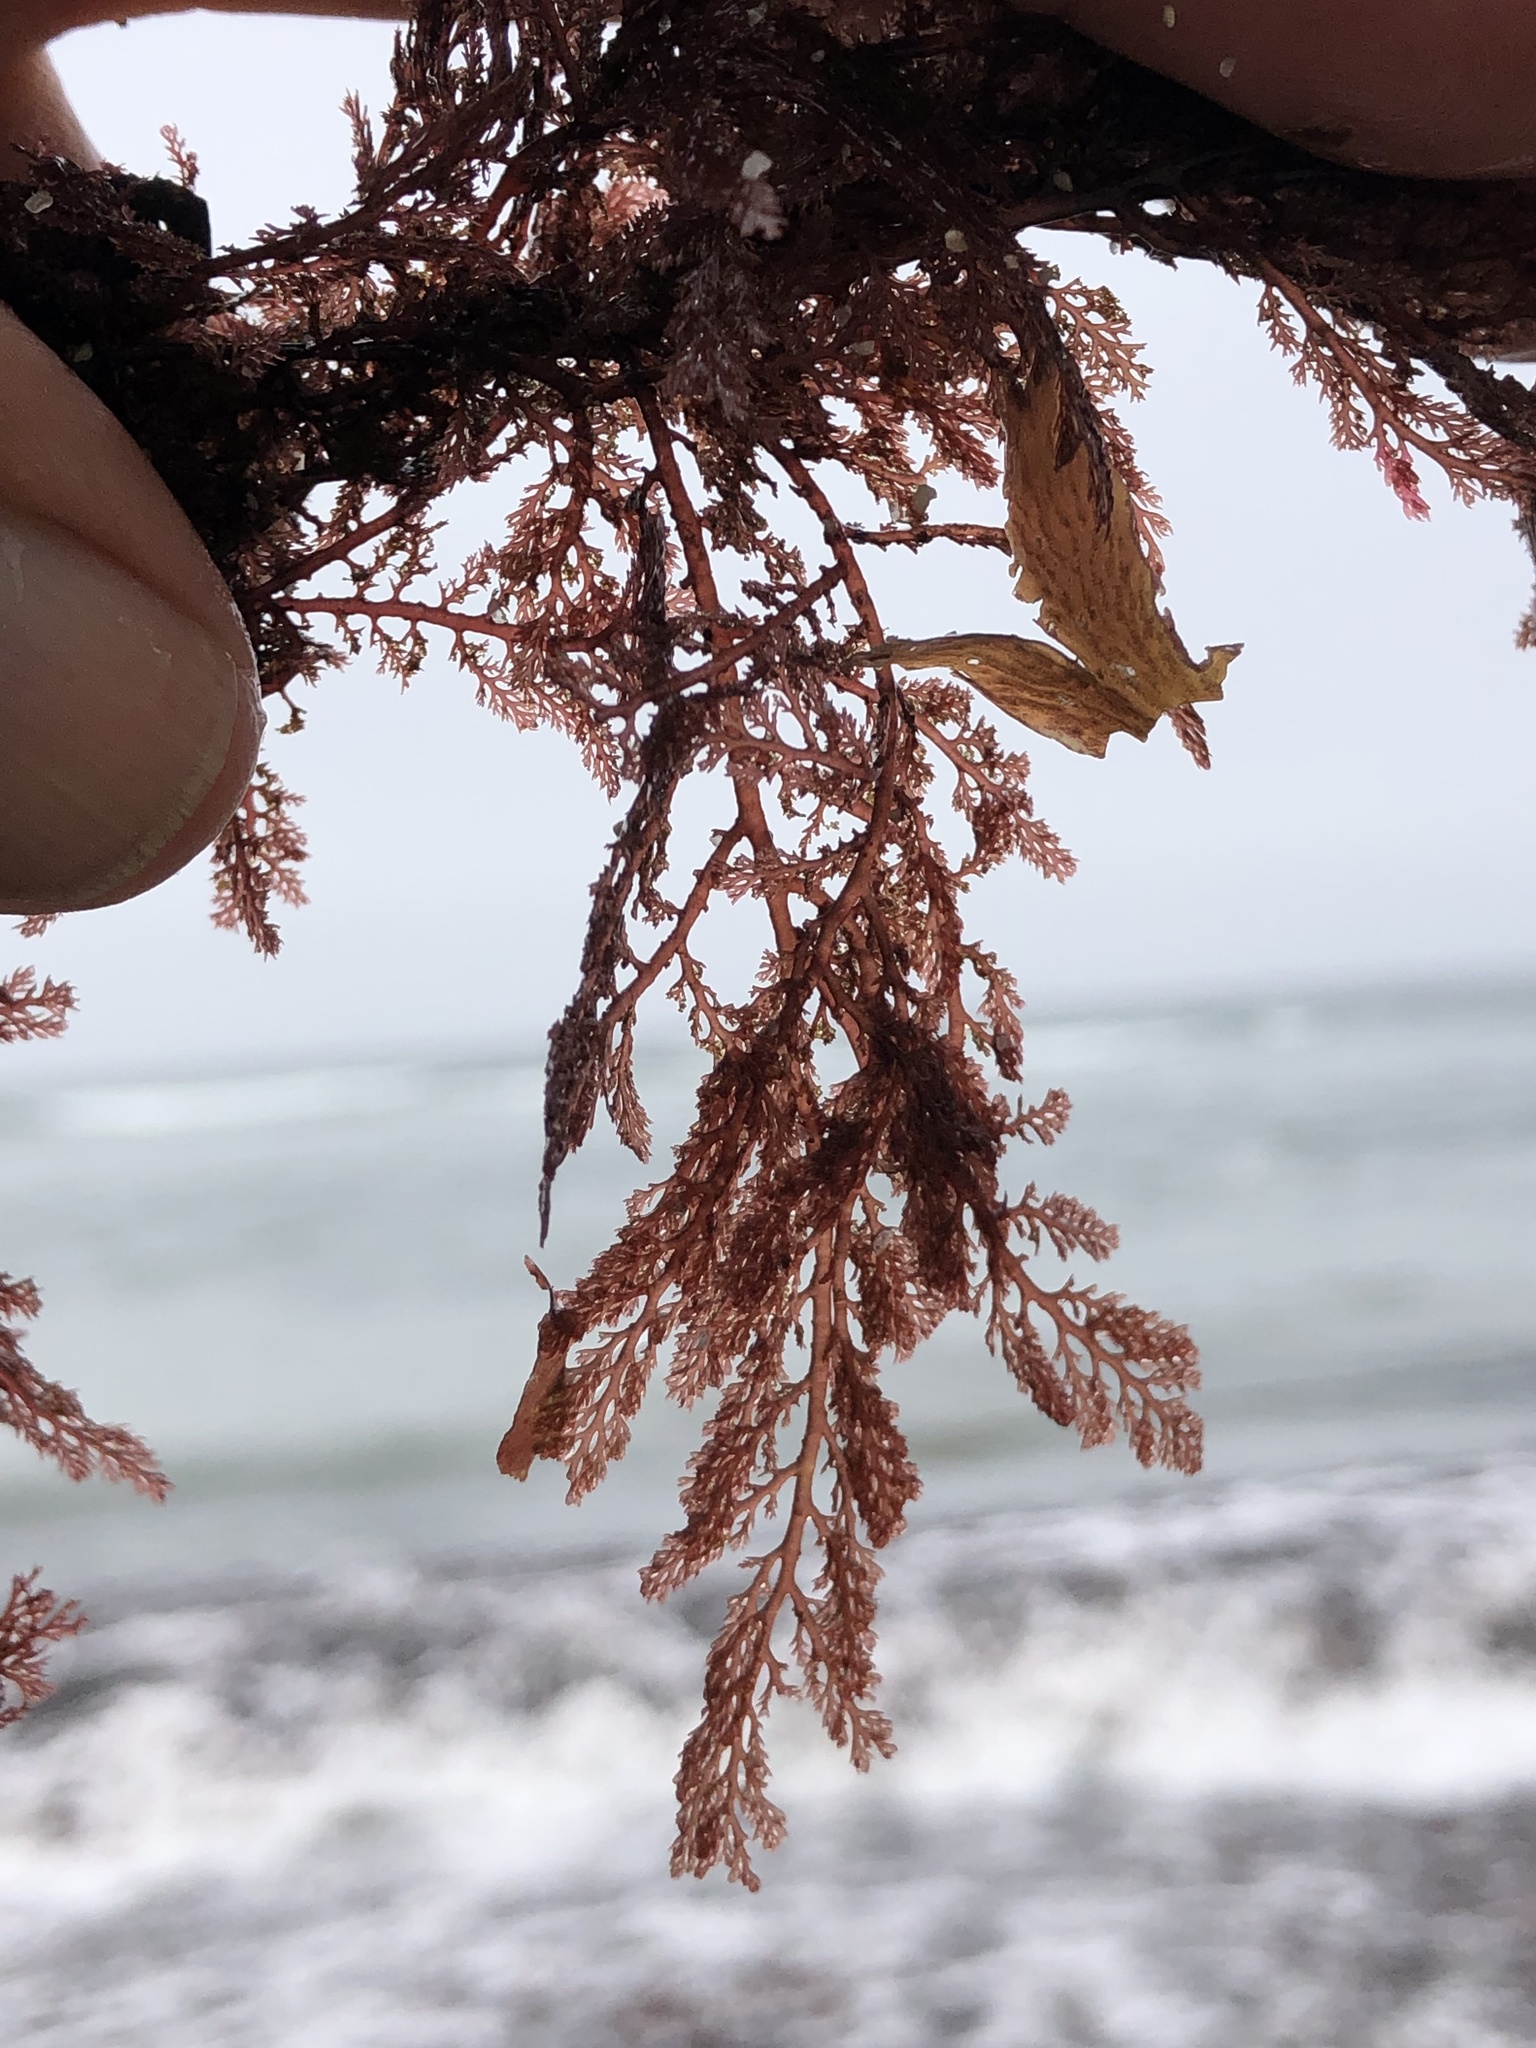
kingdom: Plantae
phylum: Rhodophyta
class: Florideophyceae
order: Ceramiales
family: Ceramiaceae
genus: Microcladia
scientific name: Microcladia coulteri
